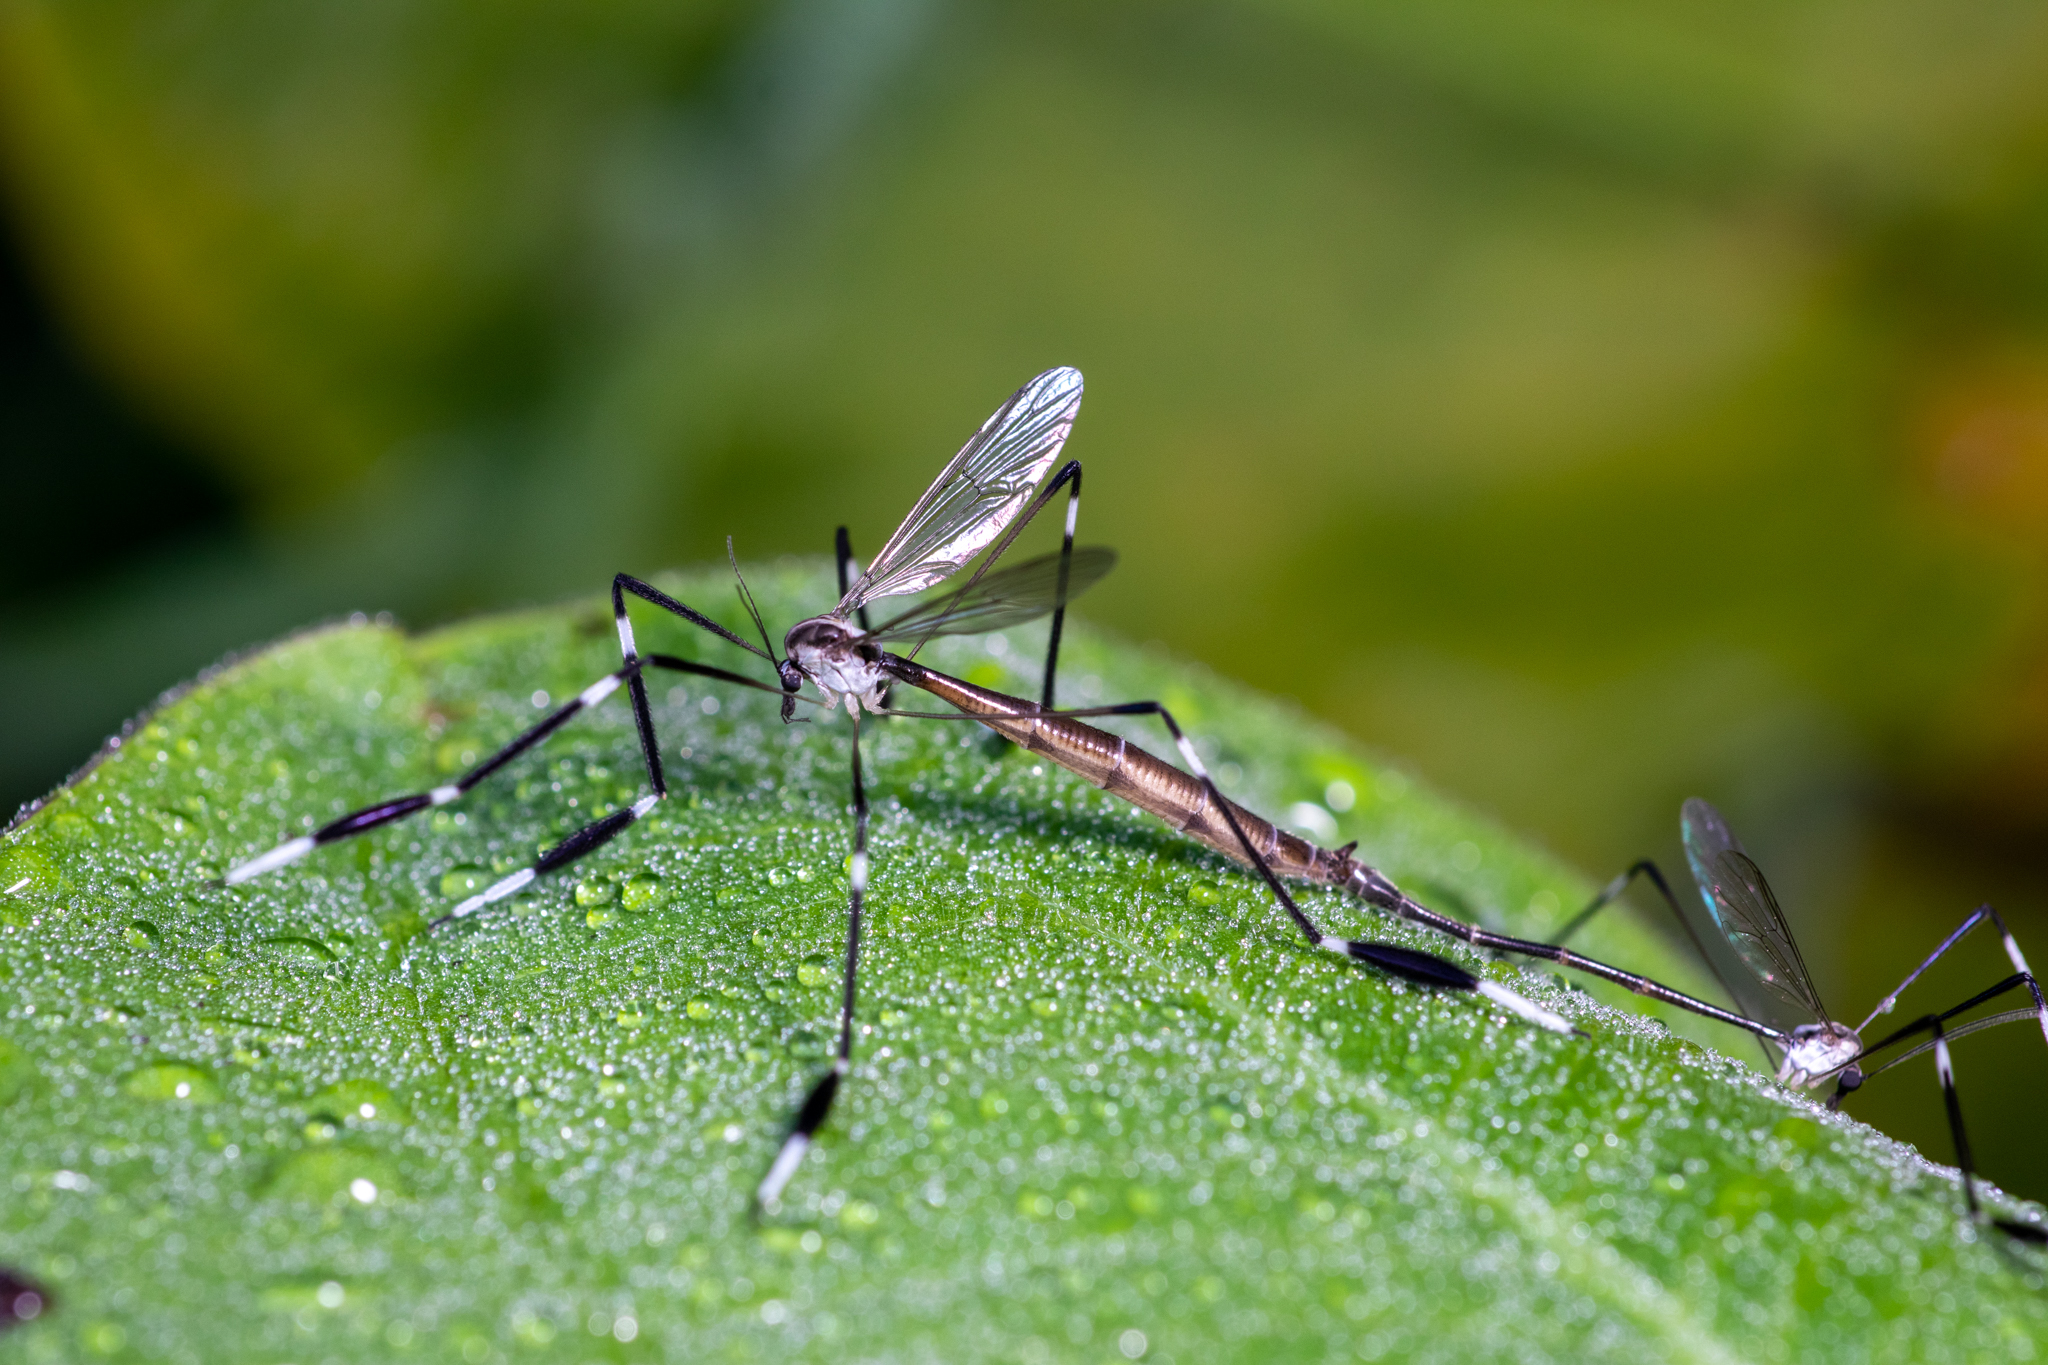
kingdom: Animalia
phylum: Arthropoda
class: Insecta
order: Diptera
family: Ptychopteridae
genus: Bittacomorpha
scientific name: Bittacomorpha clavipes
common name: Eastern phantom crane fly
